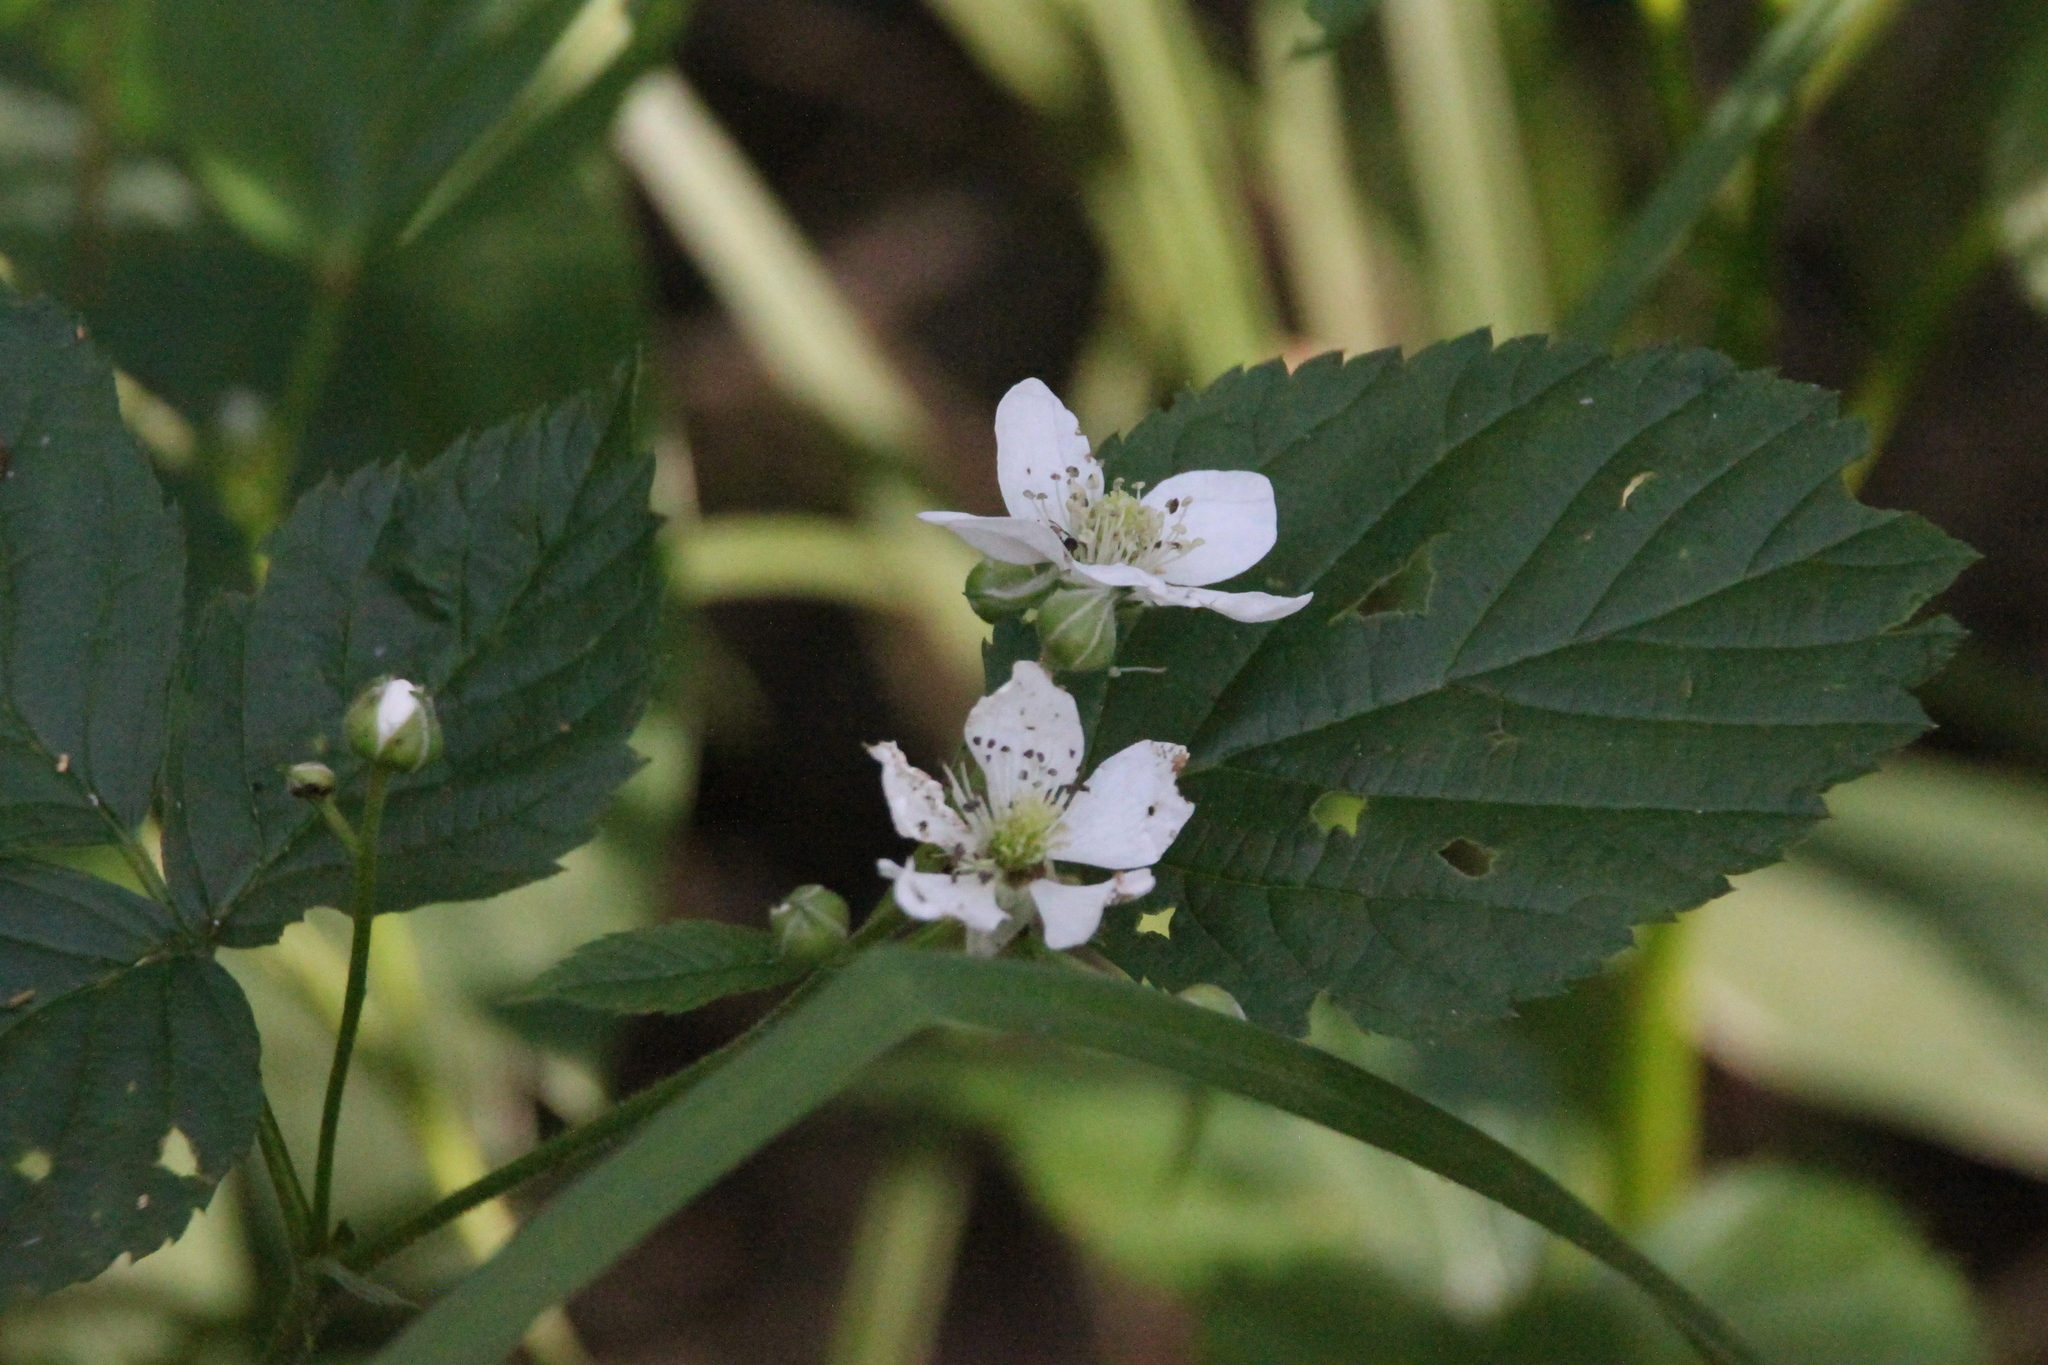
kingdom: Plantae
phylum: Tracheophyta
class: Magnoliopsida
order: Rosales
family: Rosaceae
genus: Rubus
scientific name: Rubus polonicus
